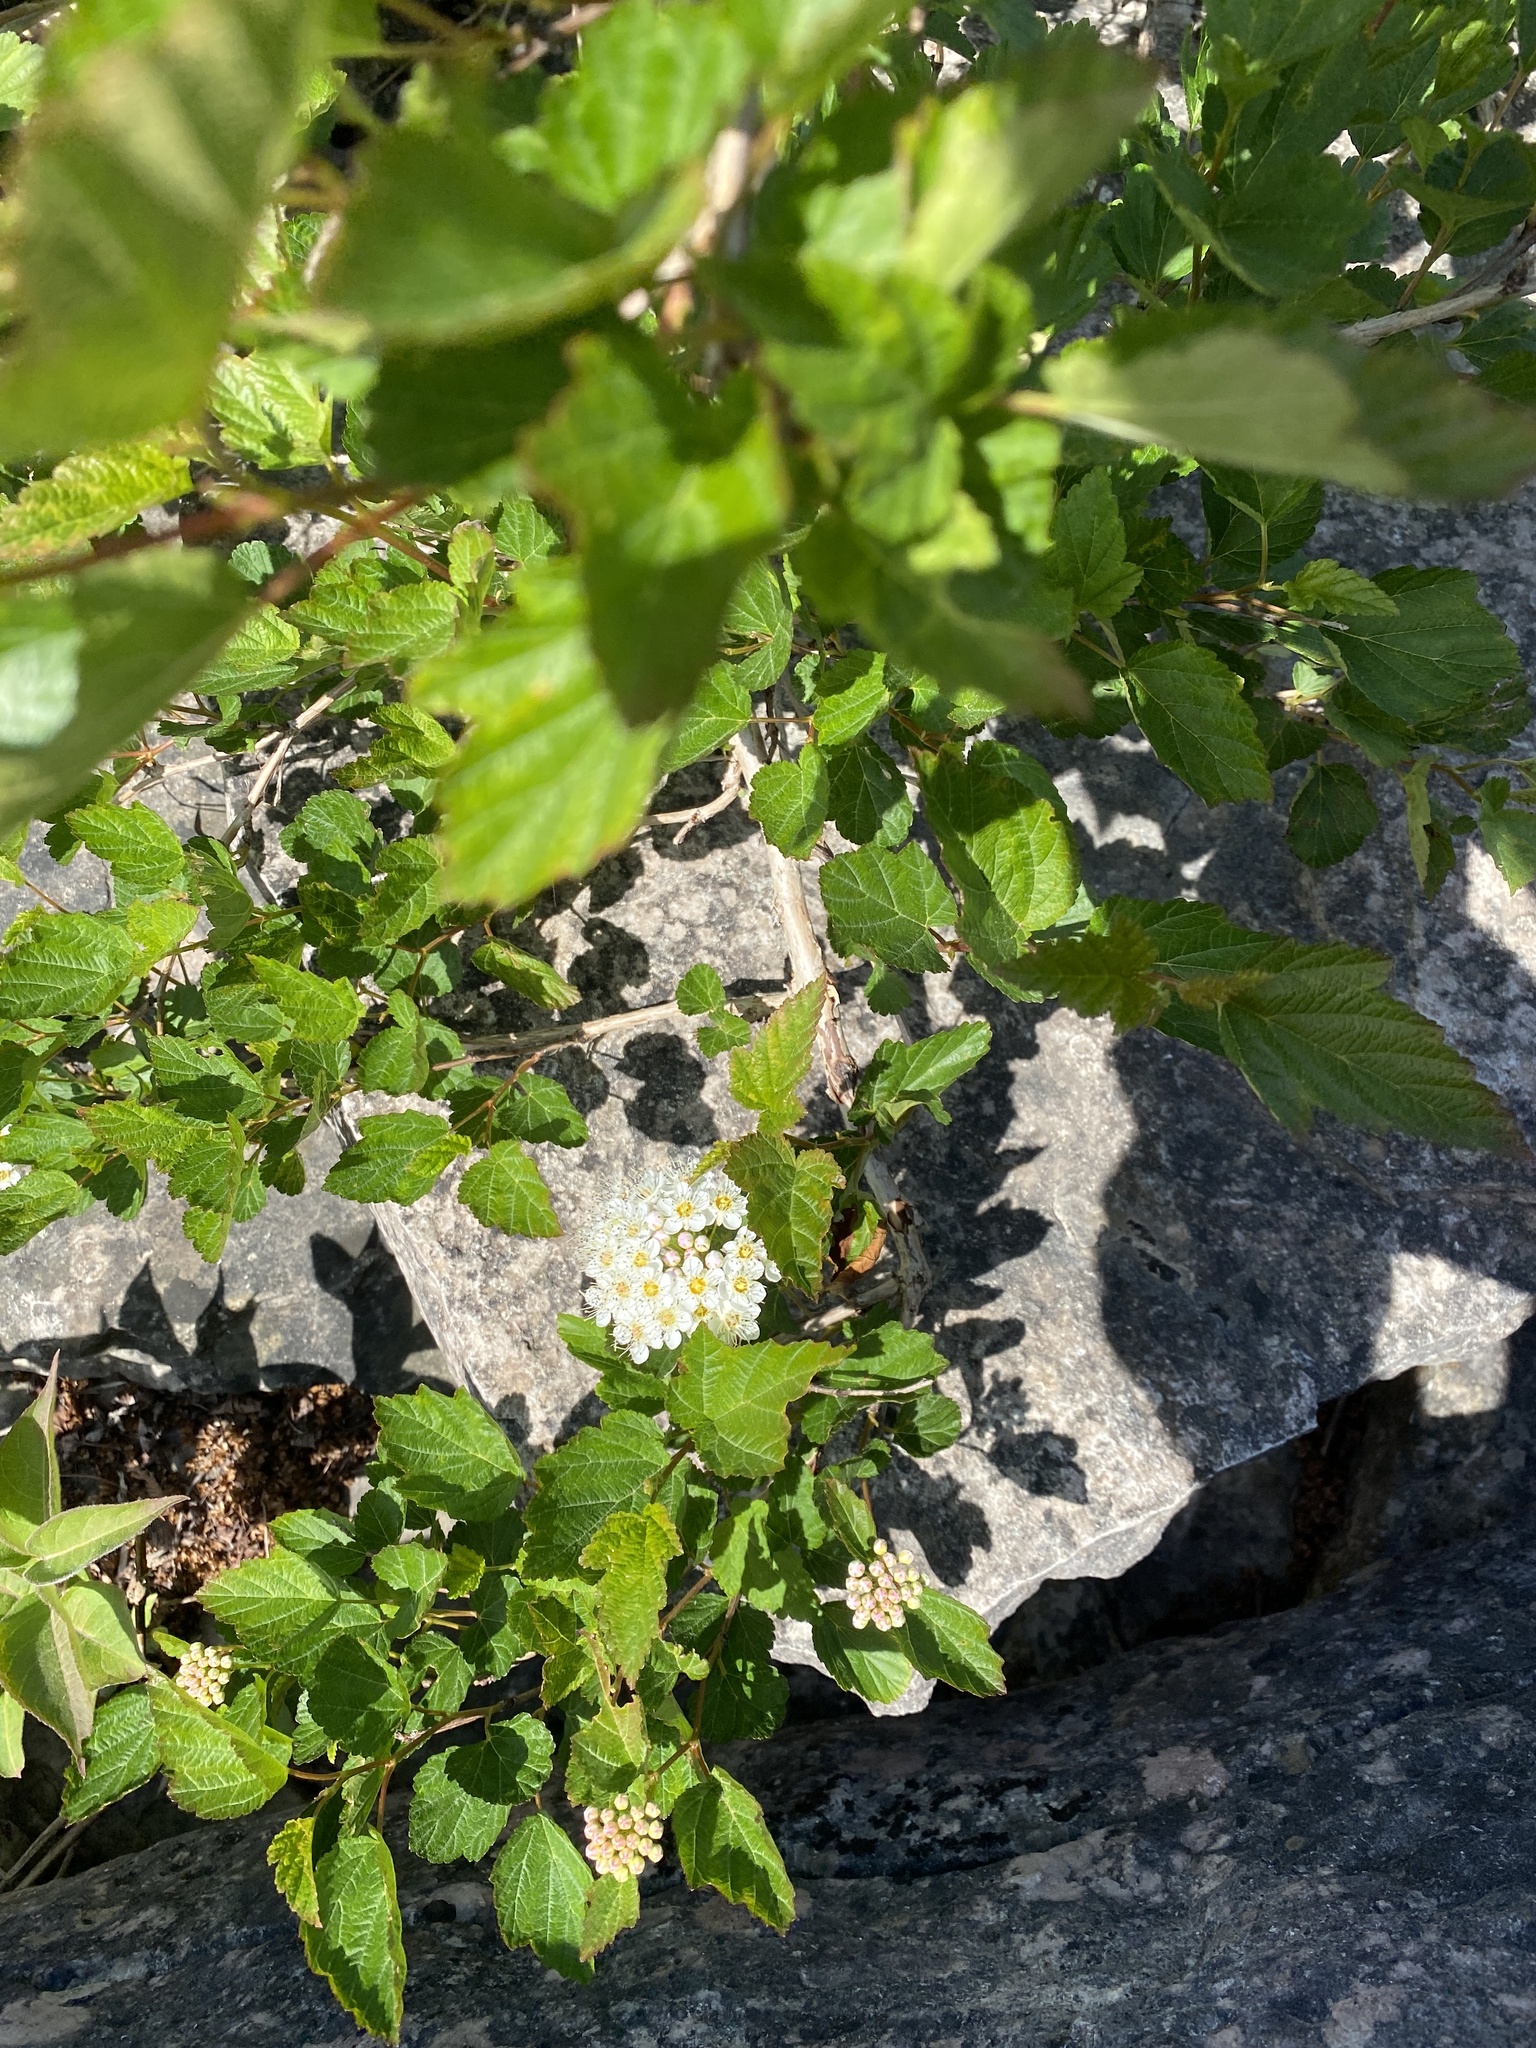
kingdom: Plantae
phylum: Tracheophyta
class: Magnoliopsida
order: Rosales
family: Rosaceae
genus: Physocarpus
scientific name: Physocarpus opulifolius
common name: Ninebark
